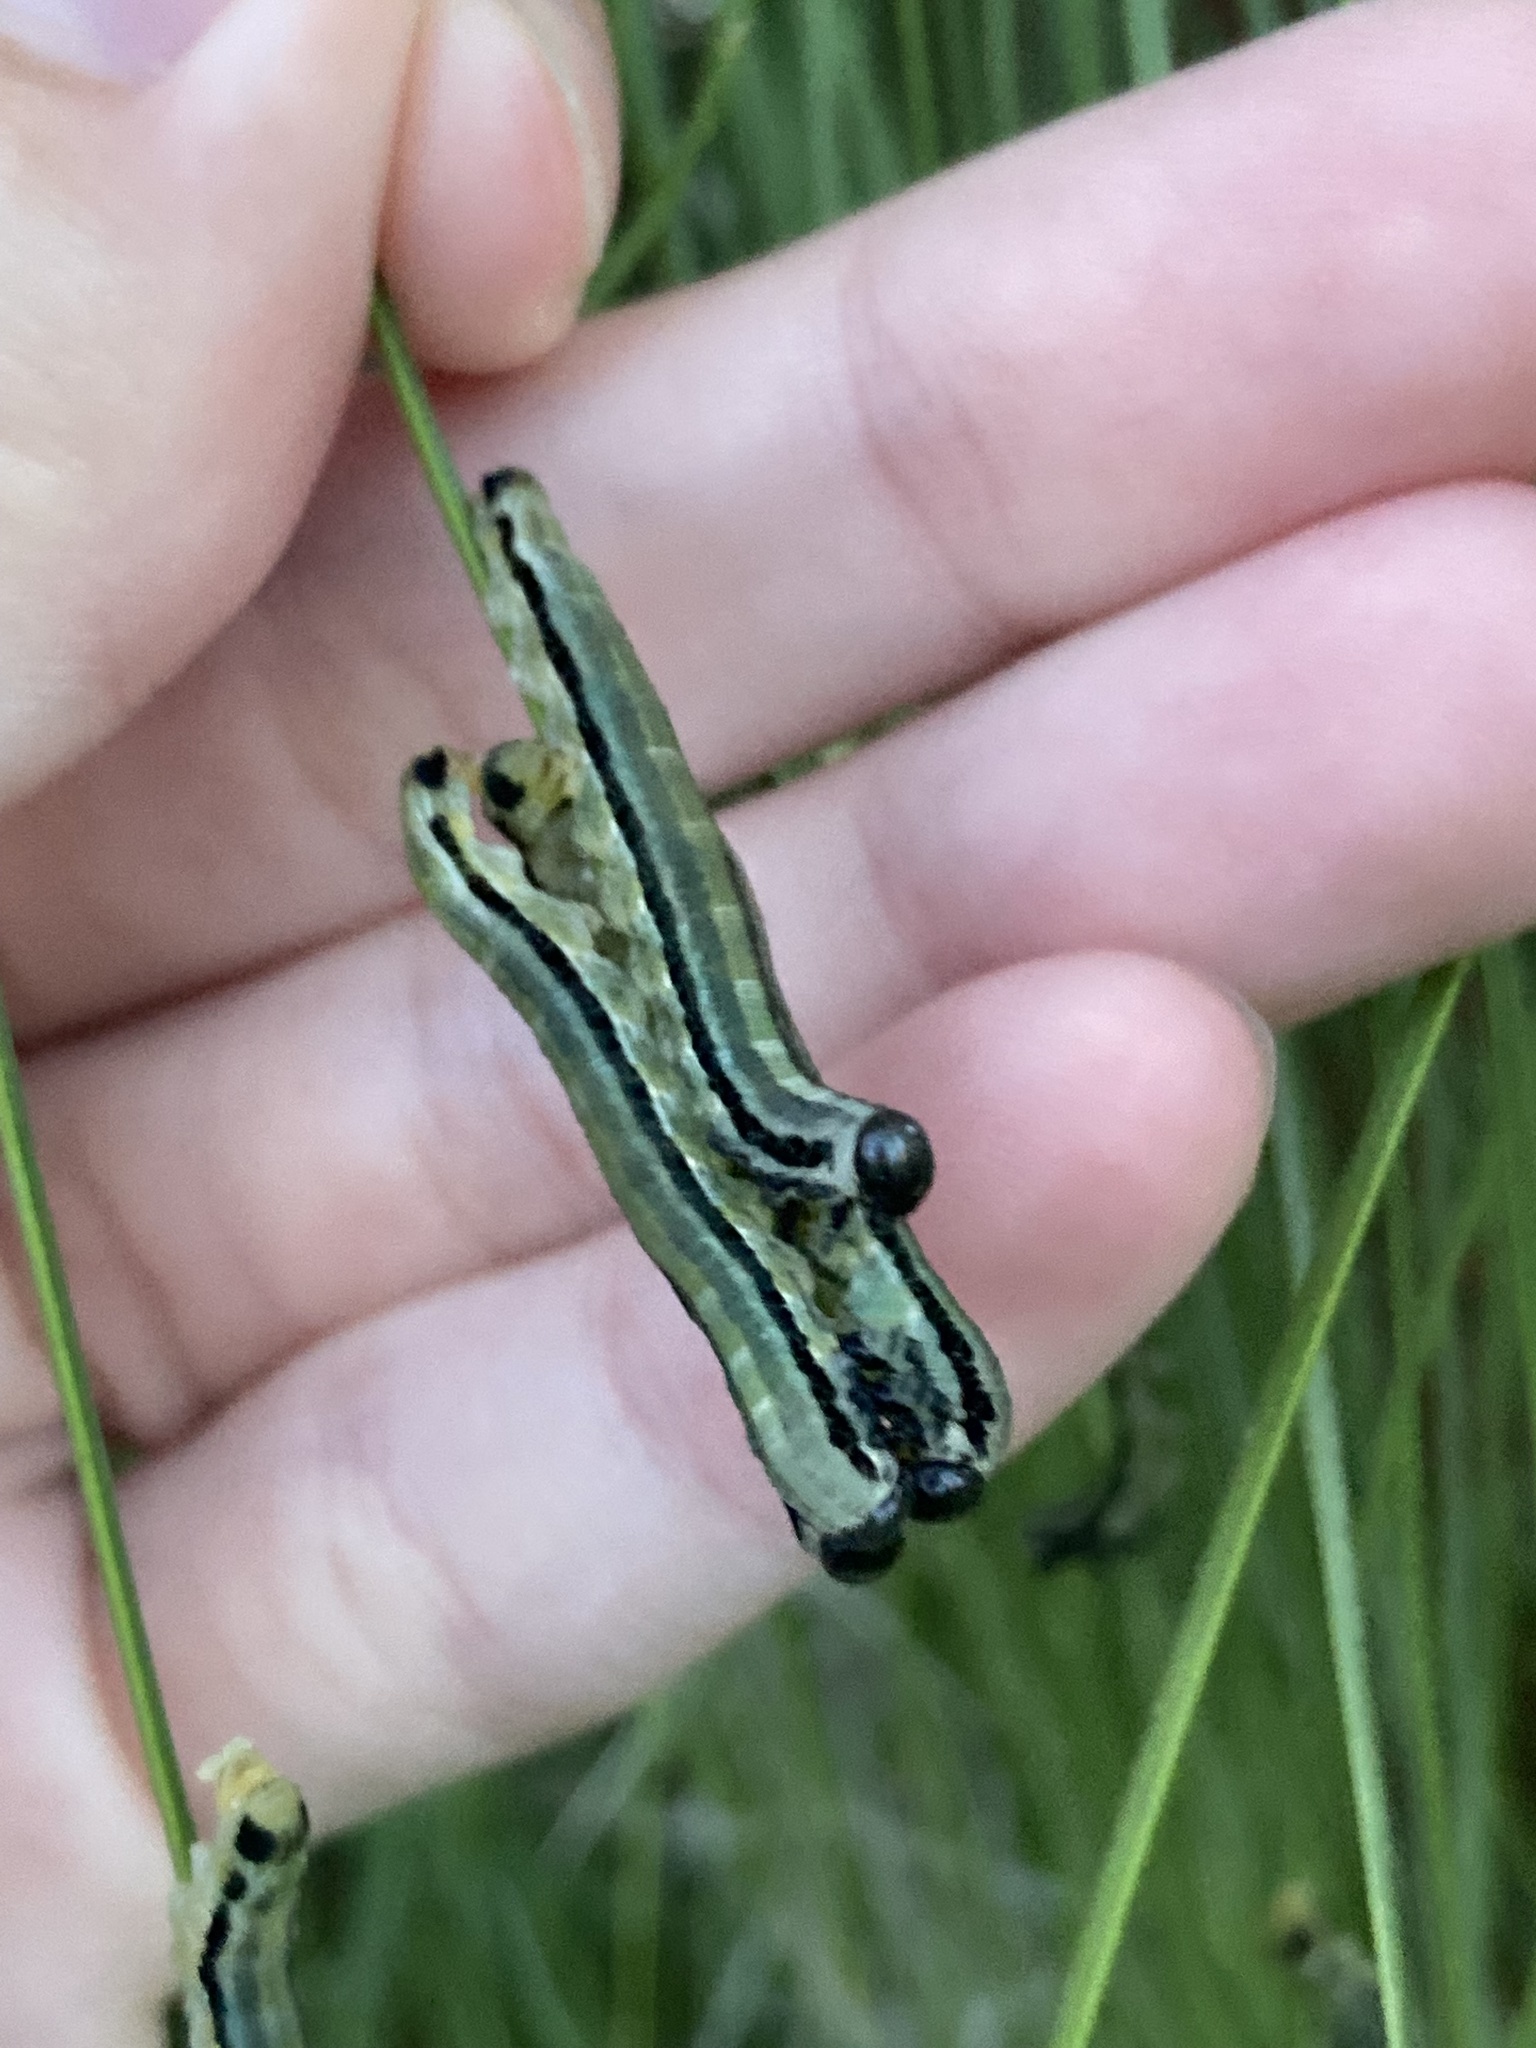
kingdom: Animalia
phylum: Arthropoda
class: Insecta
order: Hymenoptera
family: Diprionidae
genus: Neodiprion
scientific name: Neodiprion merkeli
